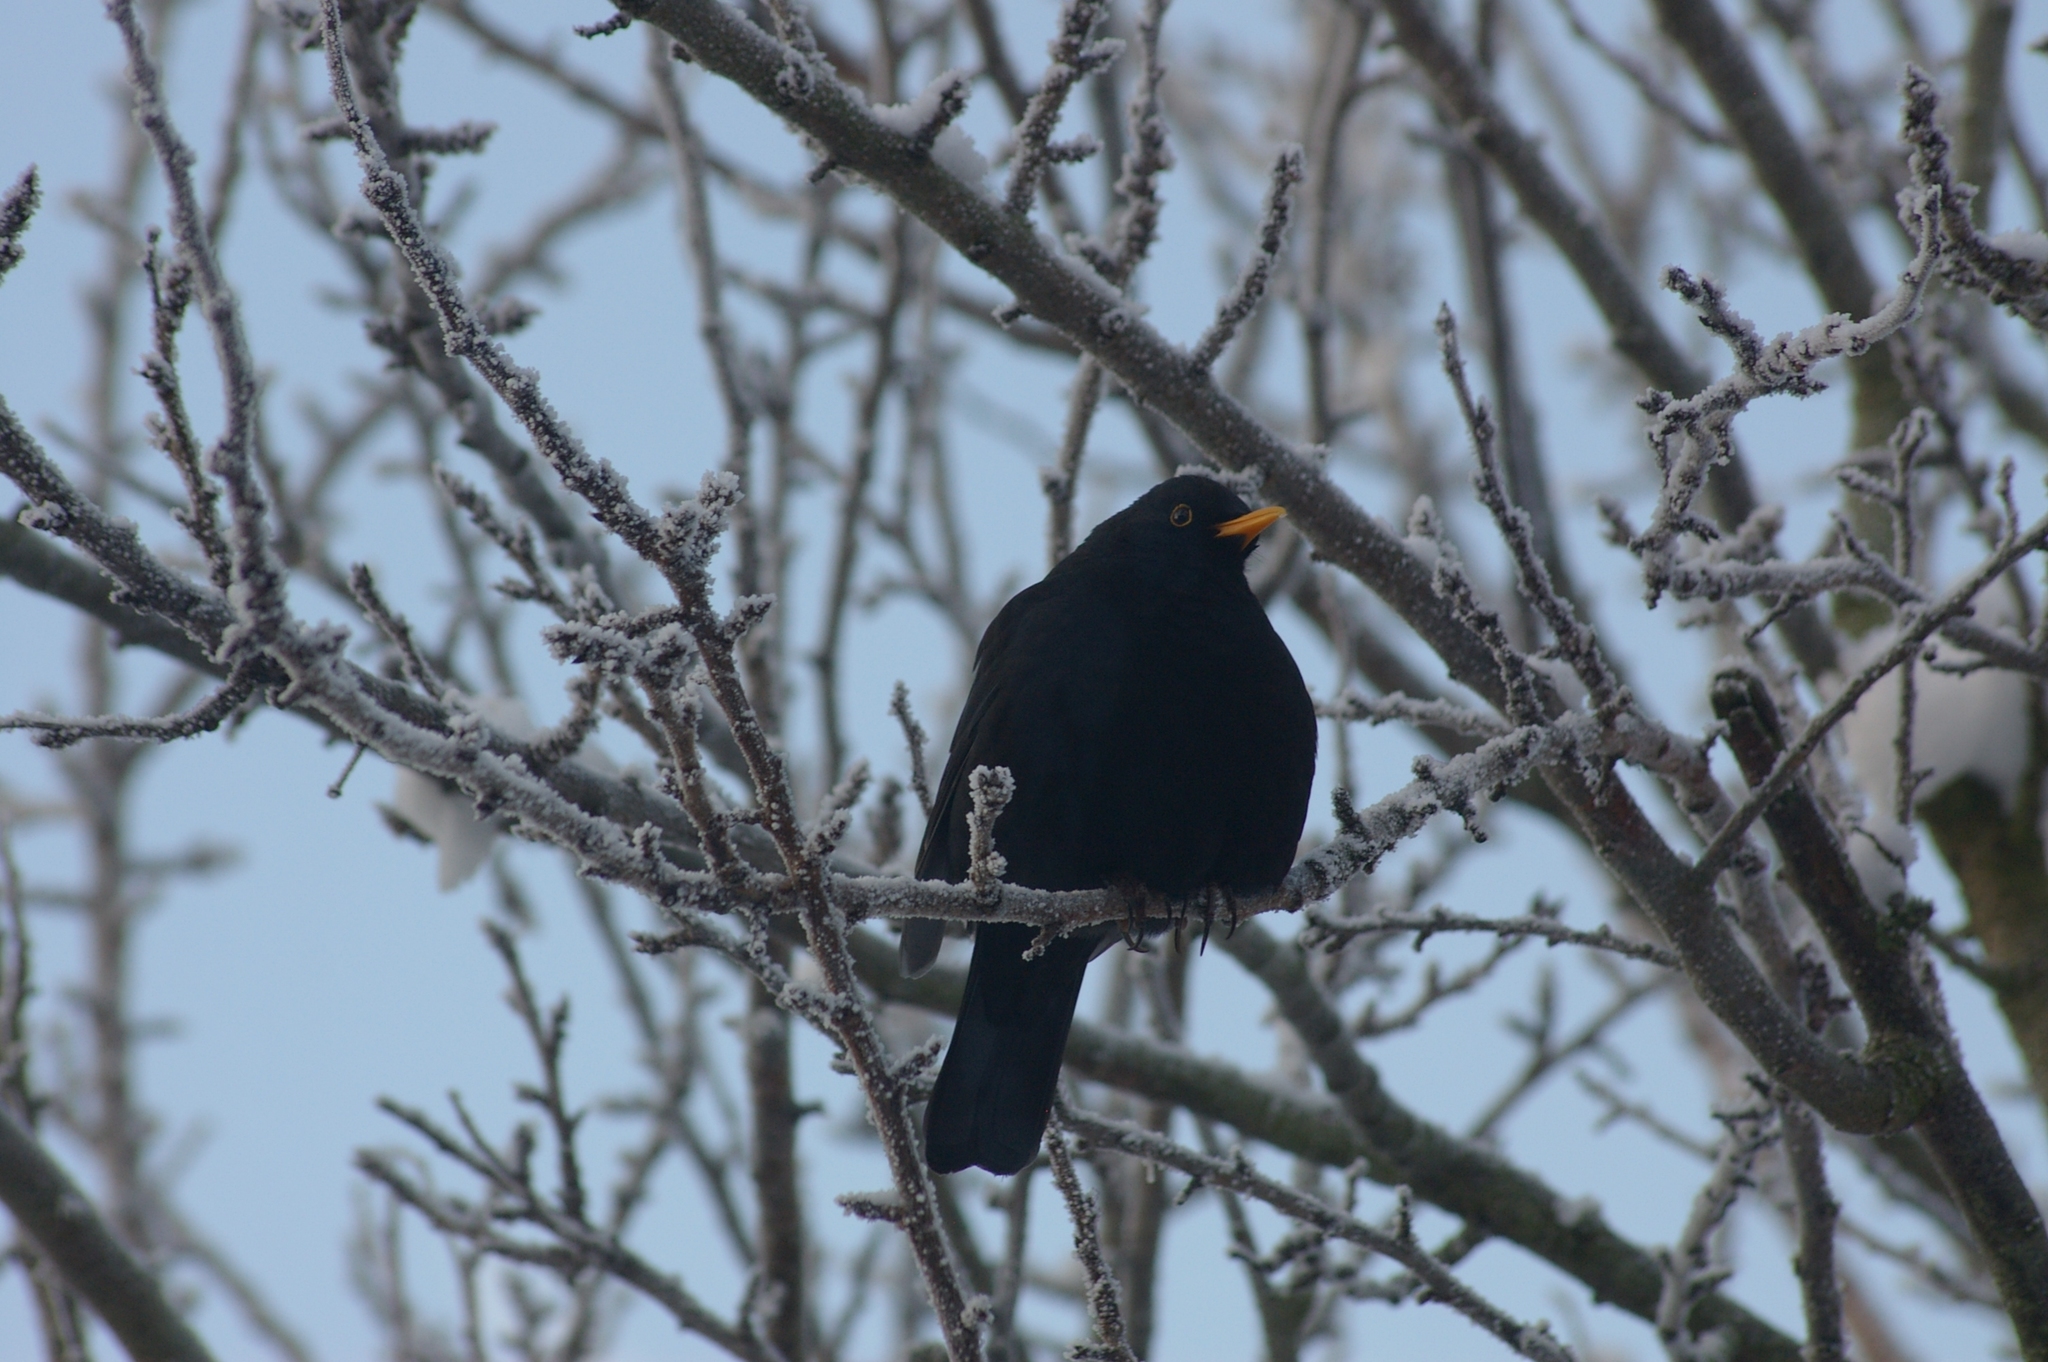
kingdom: Animalia
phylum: Chordata
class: Aves
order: Passeriformes
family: Turdidae
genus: Turdus
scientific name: Turdus merula
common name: Common blackbird
